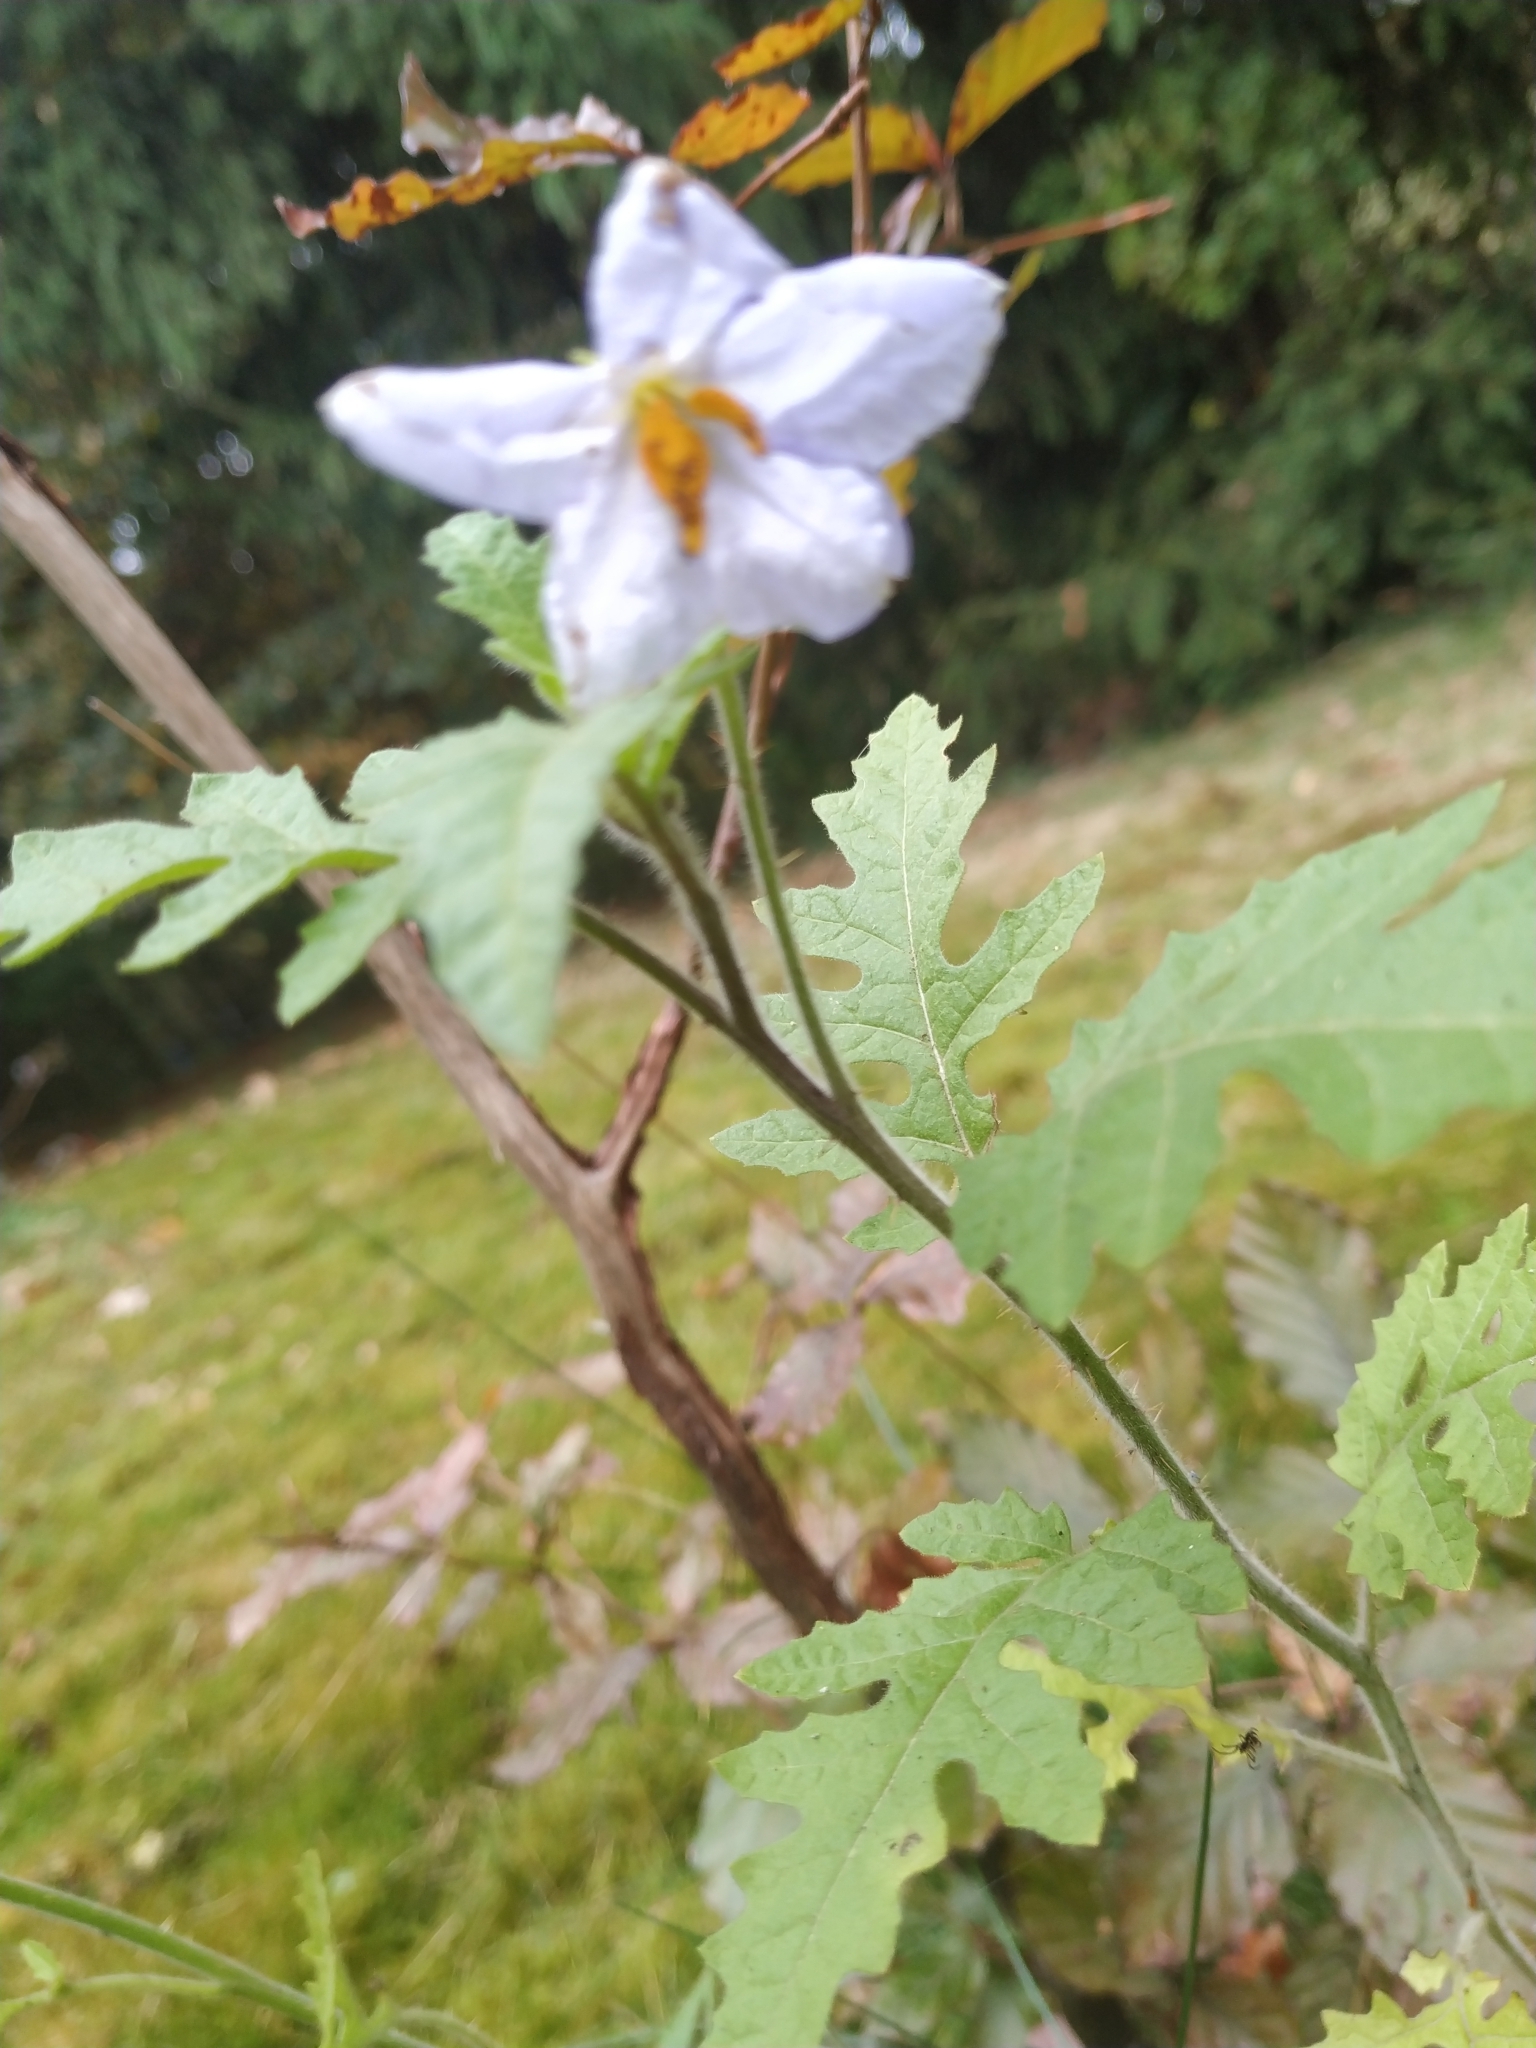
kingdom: Plantae
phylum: Tracheophyta
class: Magnoliopsida
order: Solanales
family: Solanaceae
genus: Solanum
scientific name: Solanum sisymbriifolium
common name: Red buffalo-bur
